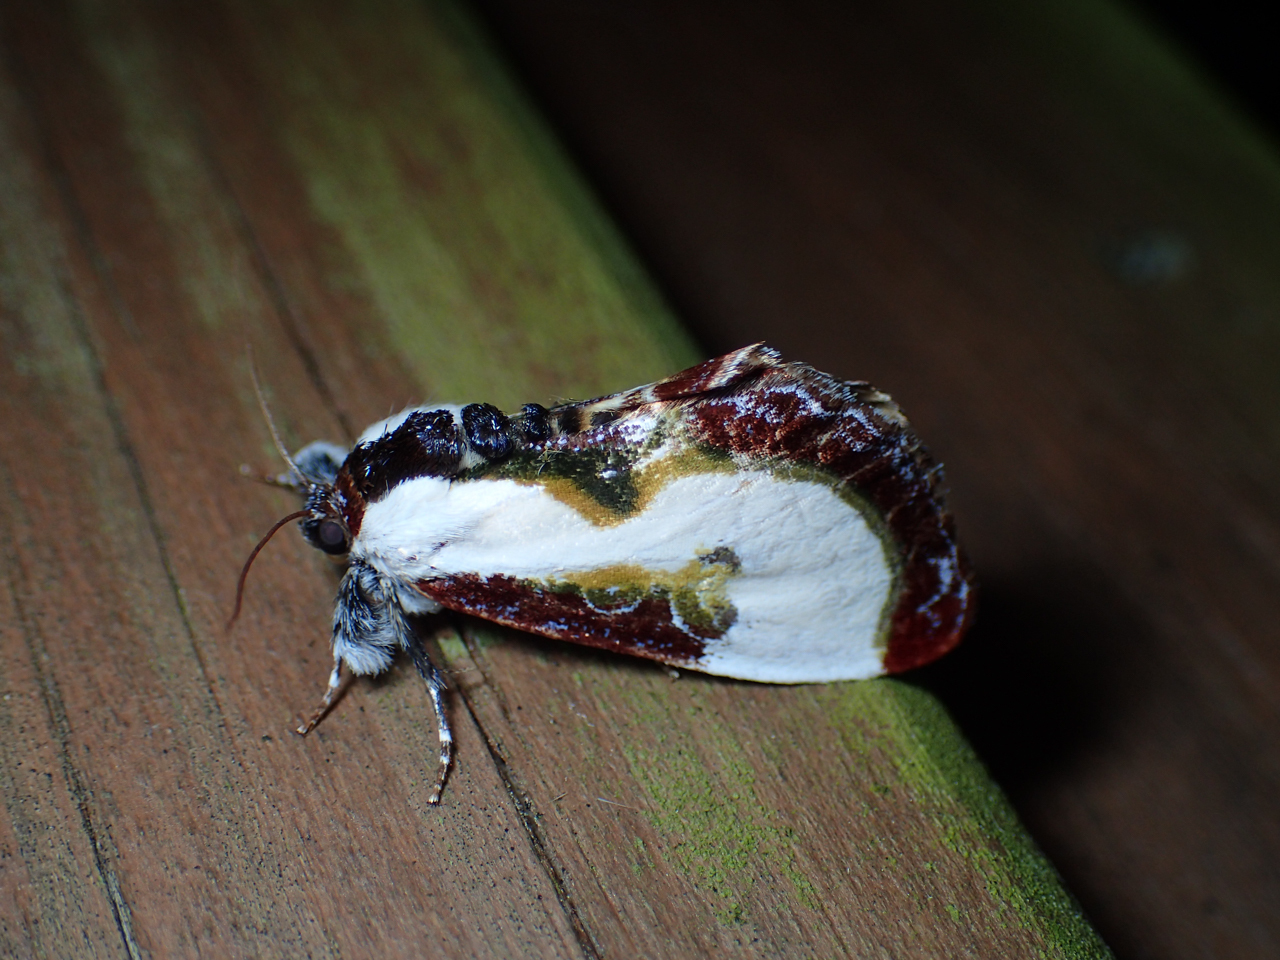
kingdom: Animalia
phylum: Arthropoda
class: Insecta
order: Lepidoptera
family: Noctuidae
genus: Eudryas
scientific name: Eudryas grata
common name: Beautiful wood-nymph
